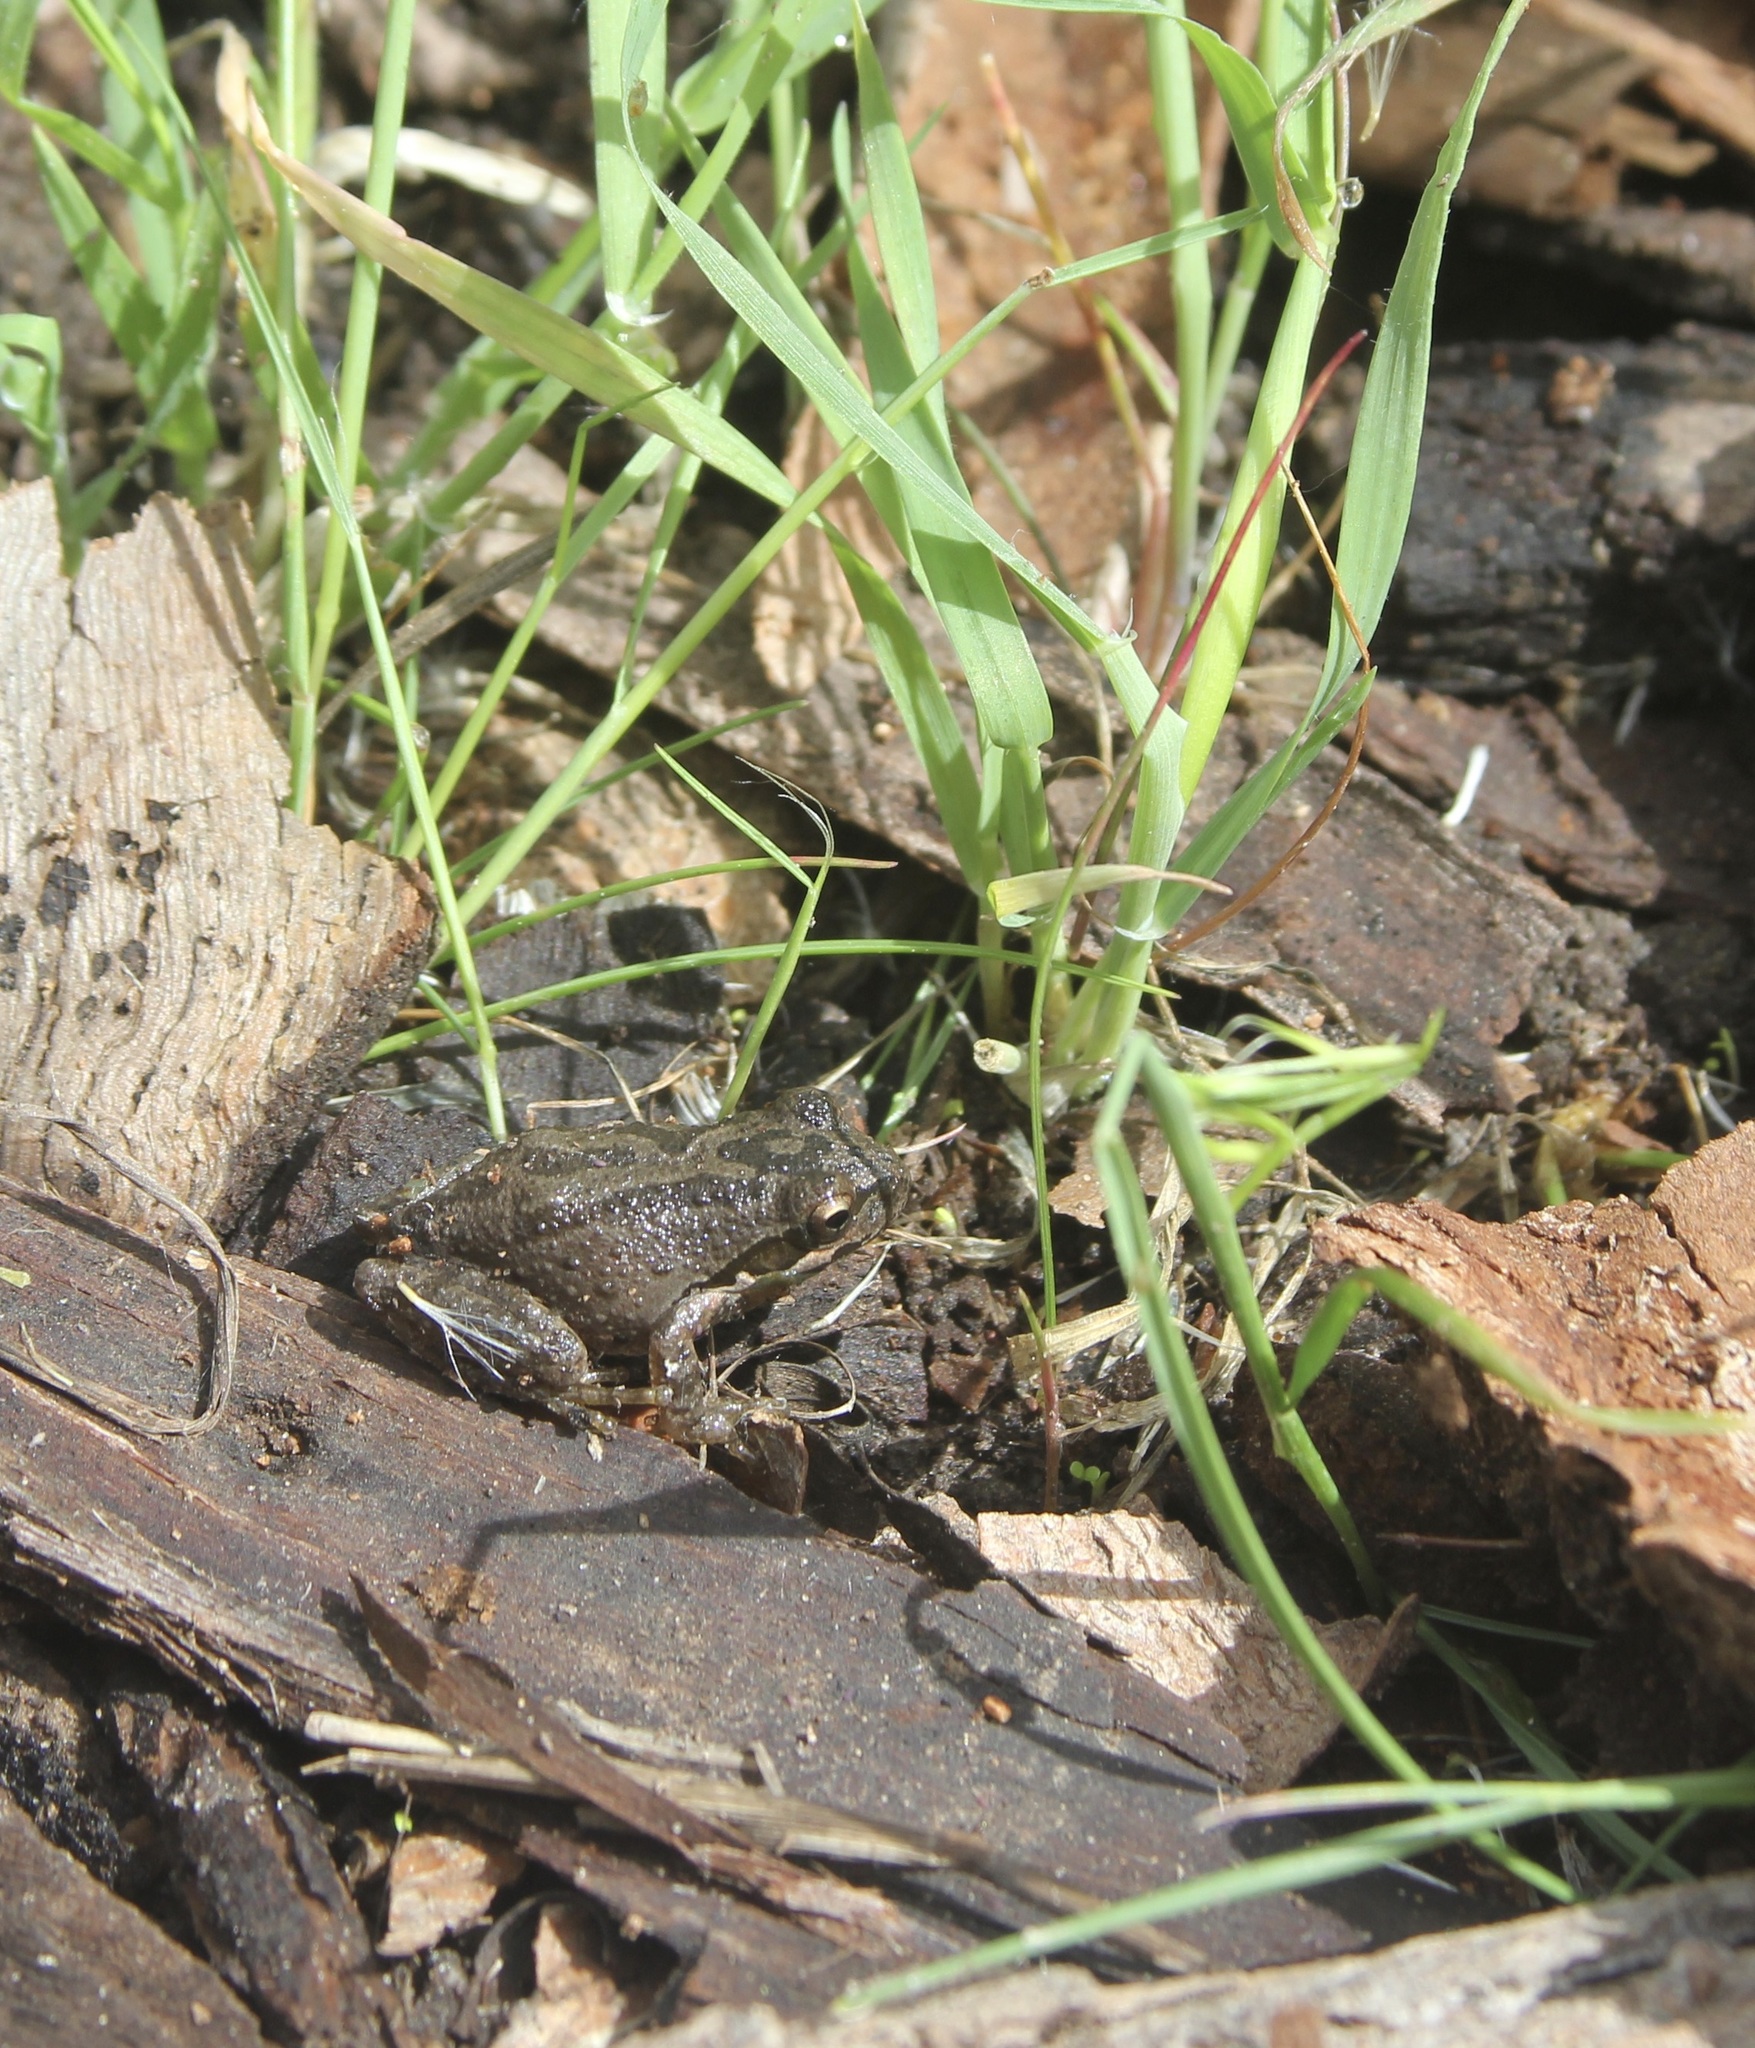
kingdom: Animalia
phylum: Chordata
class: Amphibia
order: Anura
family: Hylidae
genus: Pseudacris
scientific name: Pseudacris regilla
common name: Pacific chorus frog
